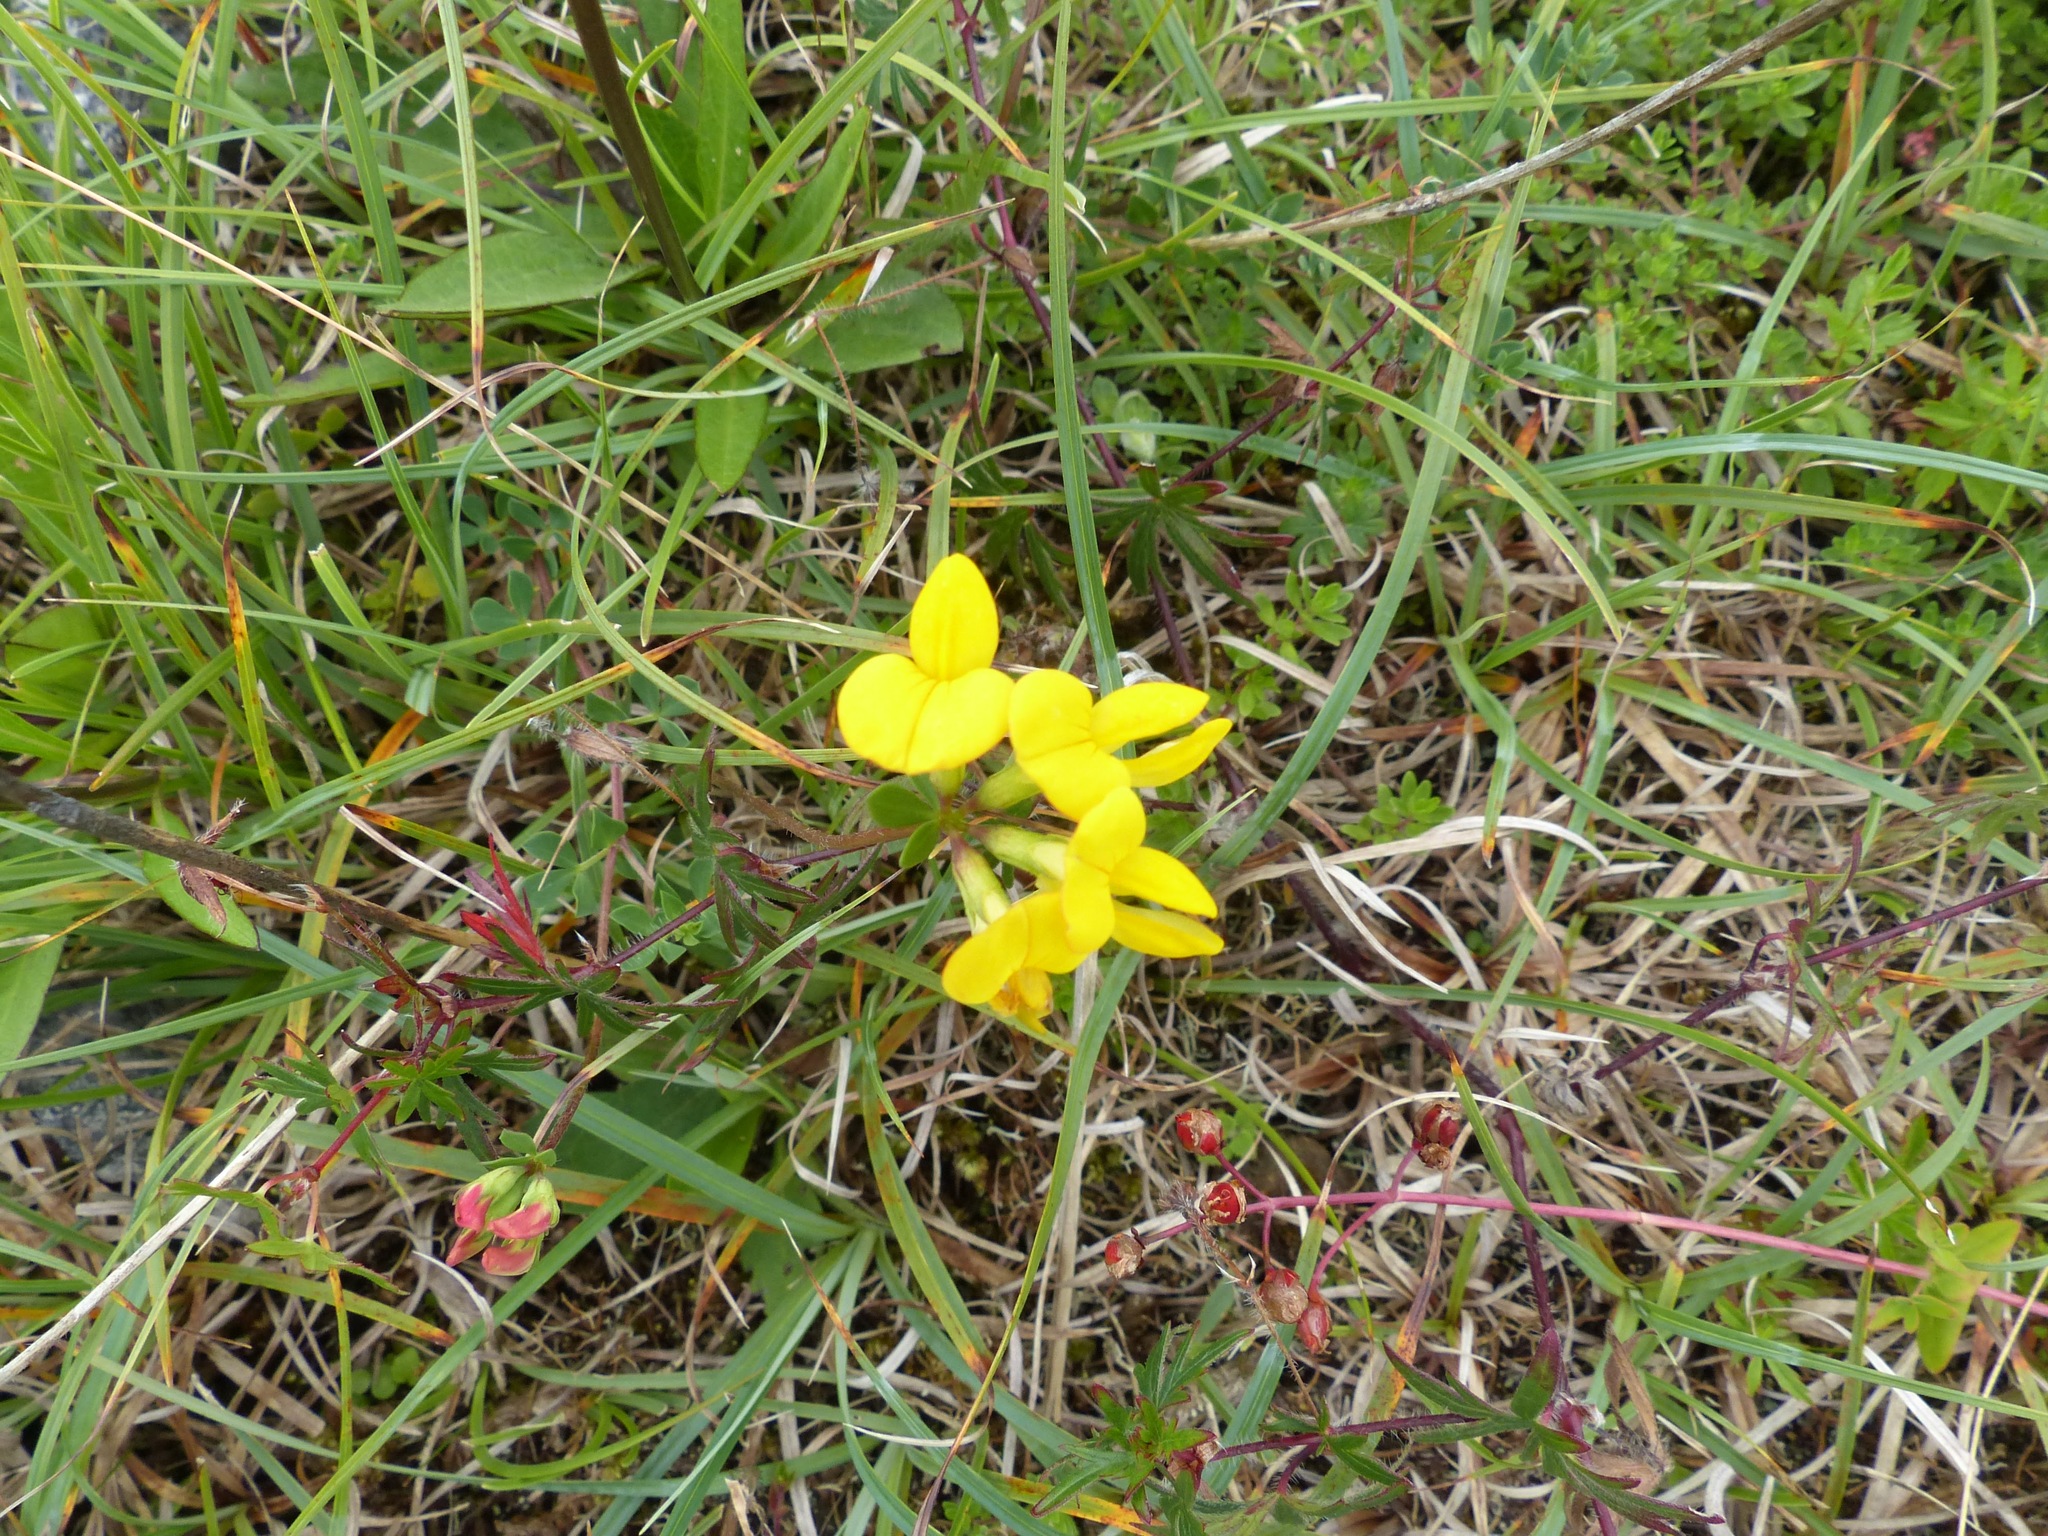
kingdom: Plantae
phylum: Tracheophyta
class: Magnoliopsida
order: Fabales
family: Fabaceae
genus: Lotus
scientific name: Lotus corniculatus
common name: Common bird's-foot-trefoil
